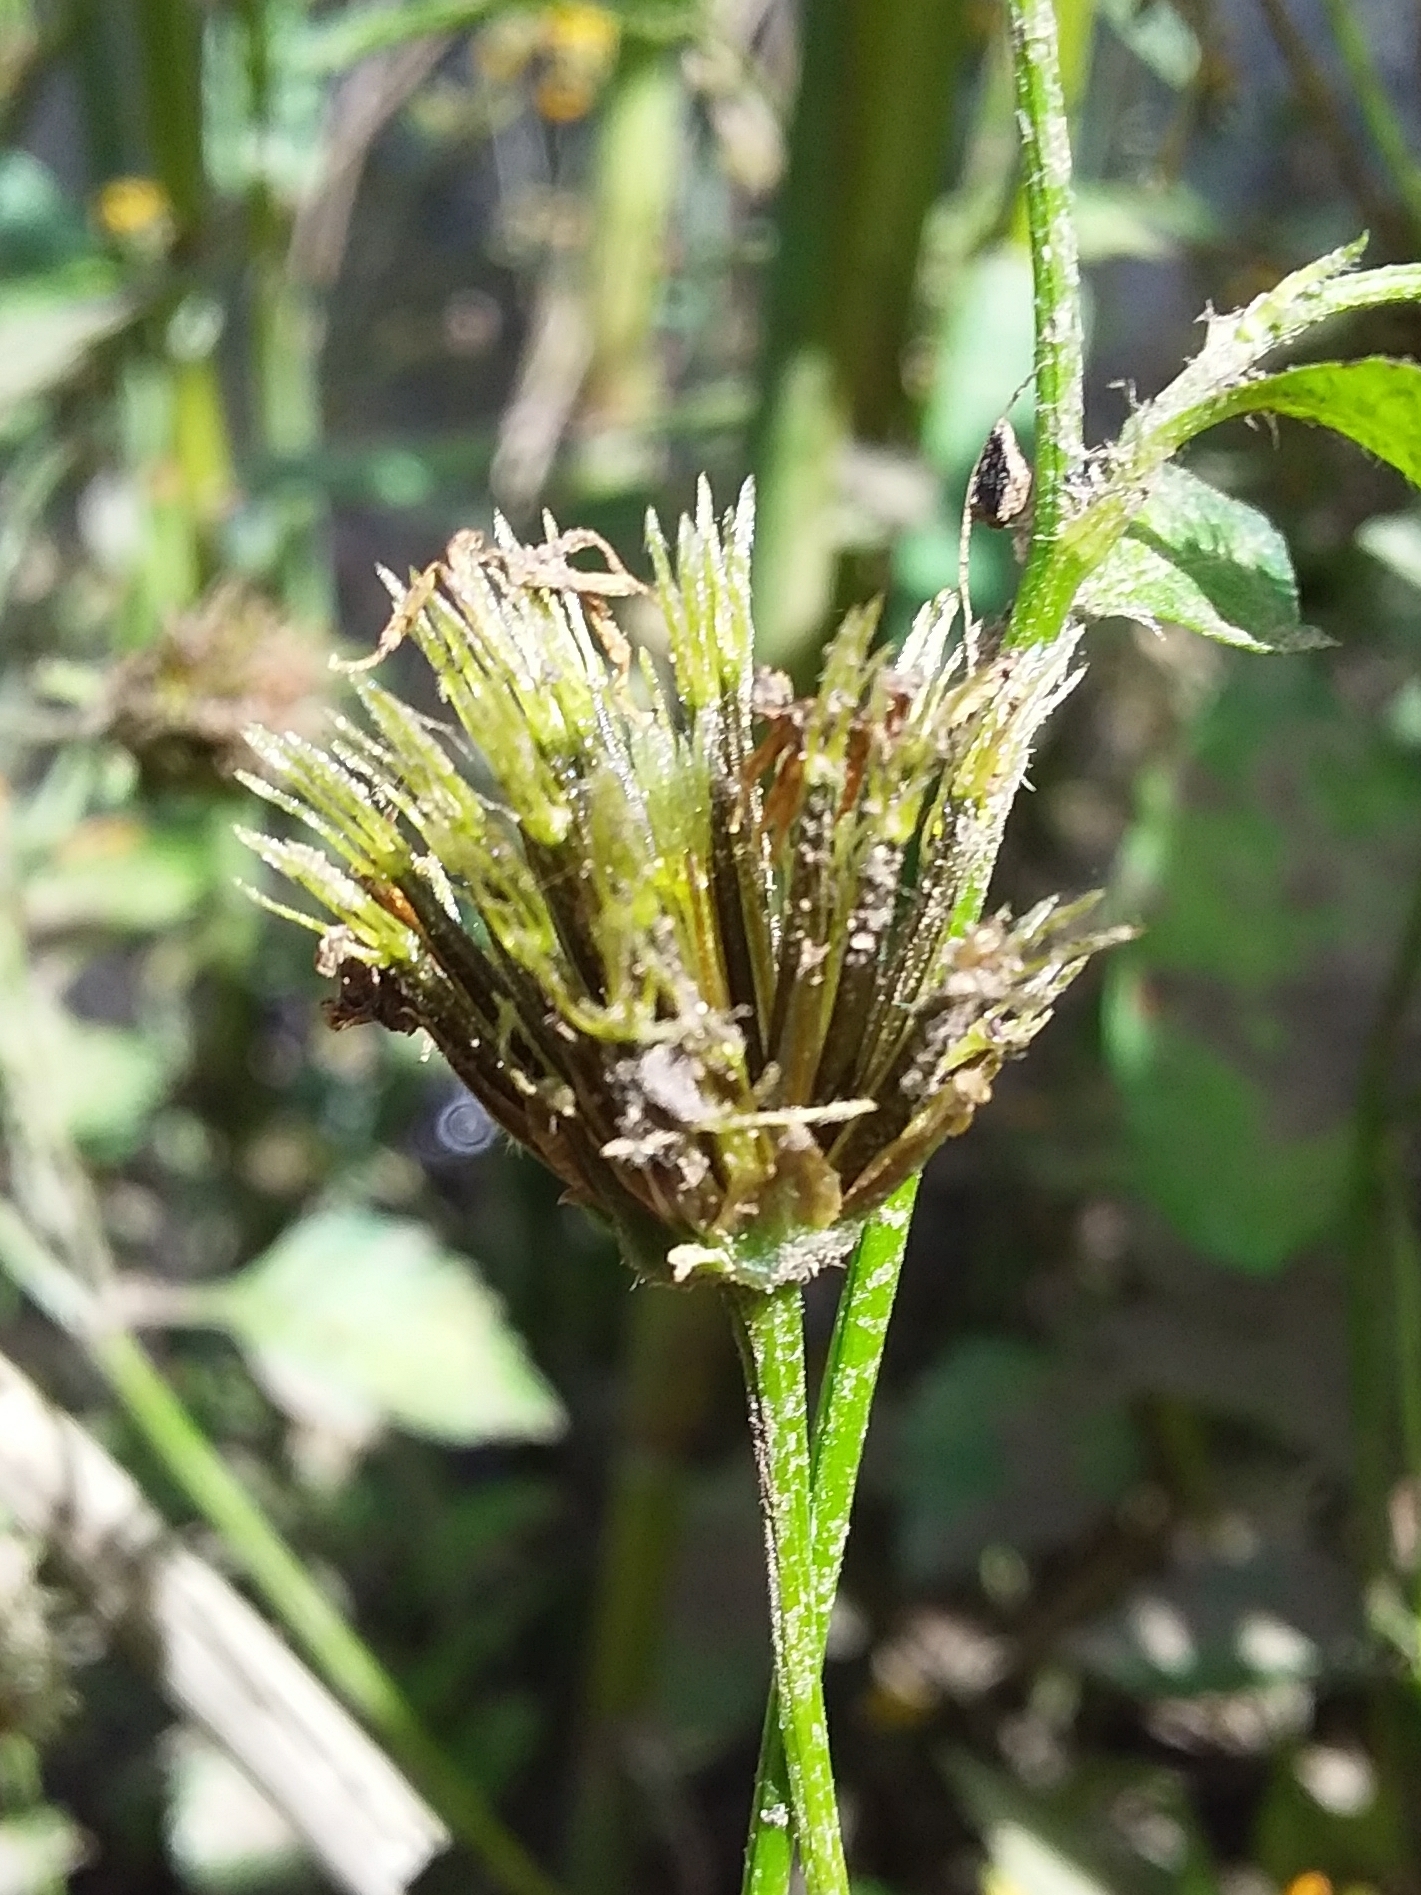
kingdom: Plantae
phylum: Tracheophyta
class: Magnoliopsida
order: Asterales
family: Asteraceae
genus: Bidens
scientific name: Bidens pilosa
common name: Black-jack
